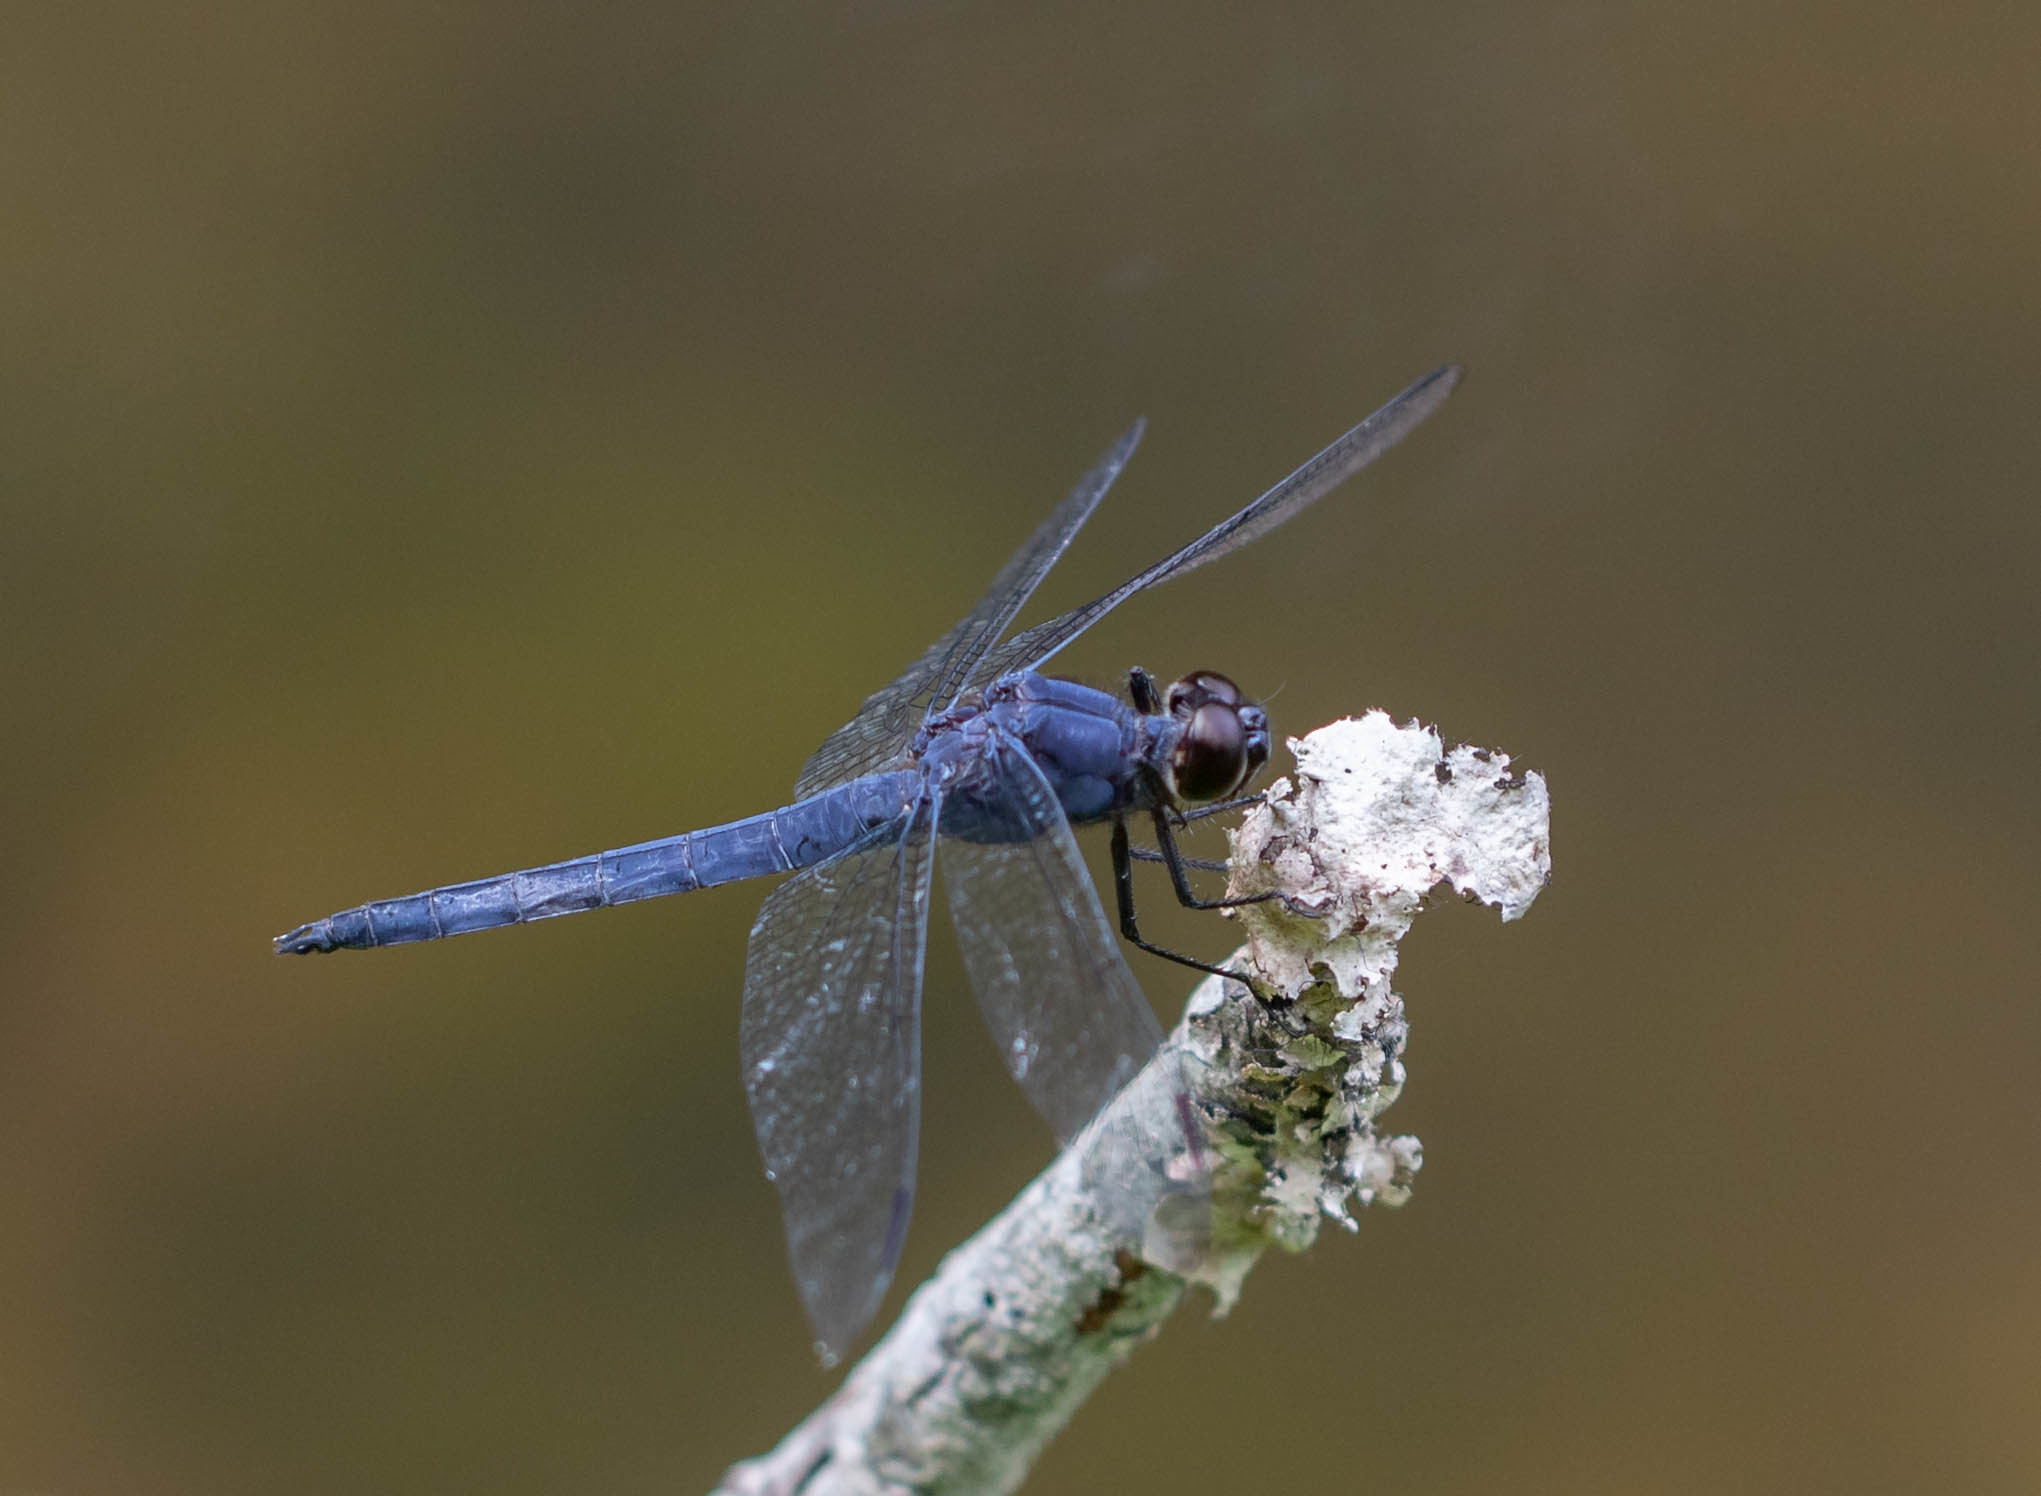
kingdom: Animalia
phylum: Arthropoda
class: Insecta
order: Odonata
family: Libellulidae
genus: Libellula
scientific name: Libellula incesta
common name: Slaty skimmer
